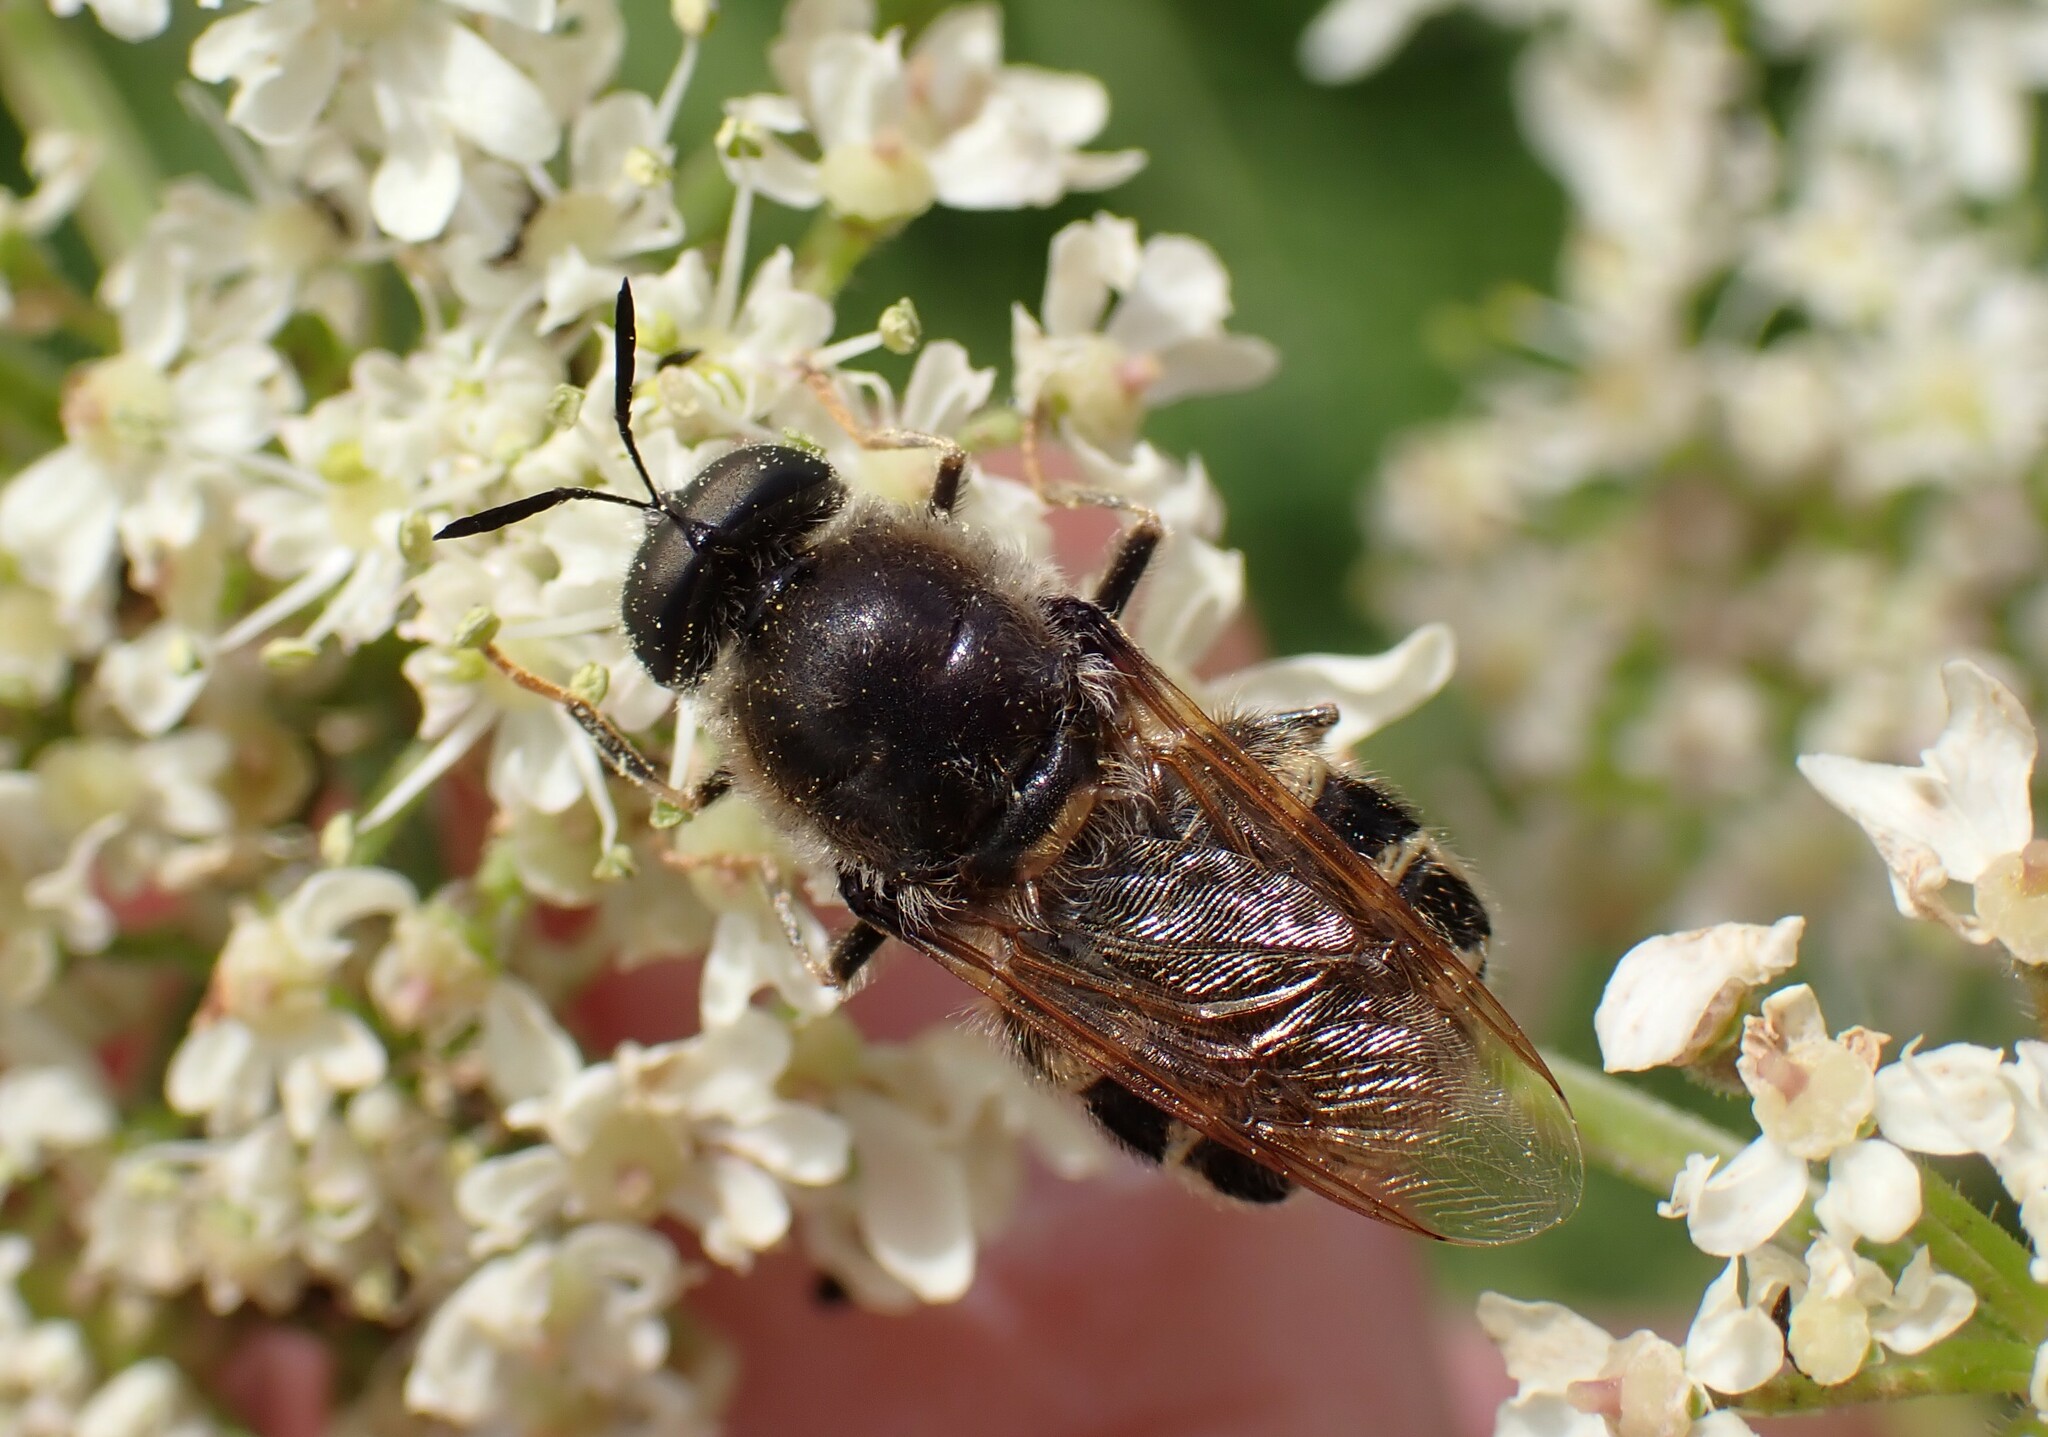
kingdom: Animalia
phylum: Arthropoda
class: Insecta
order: Diptera
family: Stratiomyidae
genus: Stratiomys
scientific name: Stratiomys singularior
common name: Flecked general
